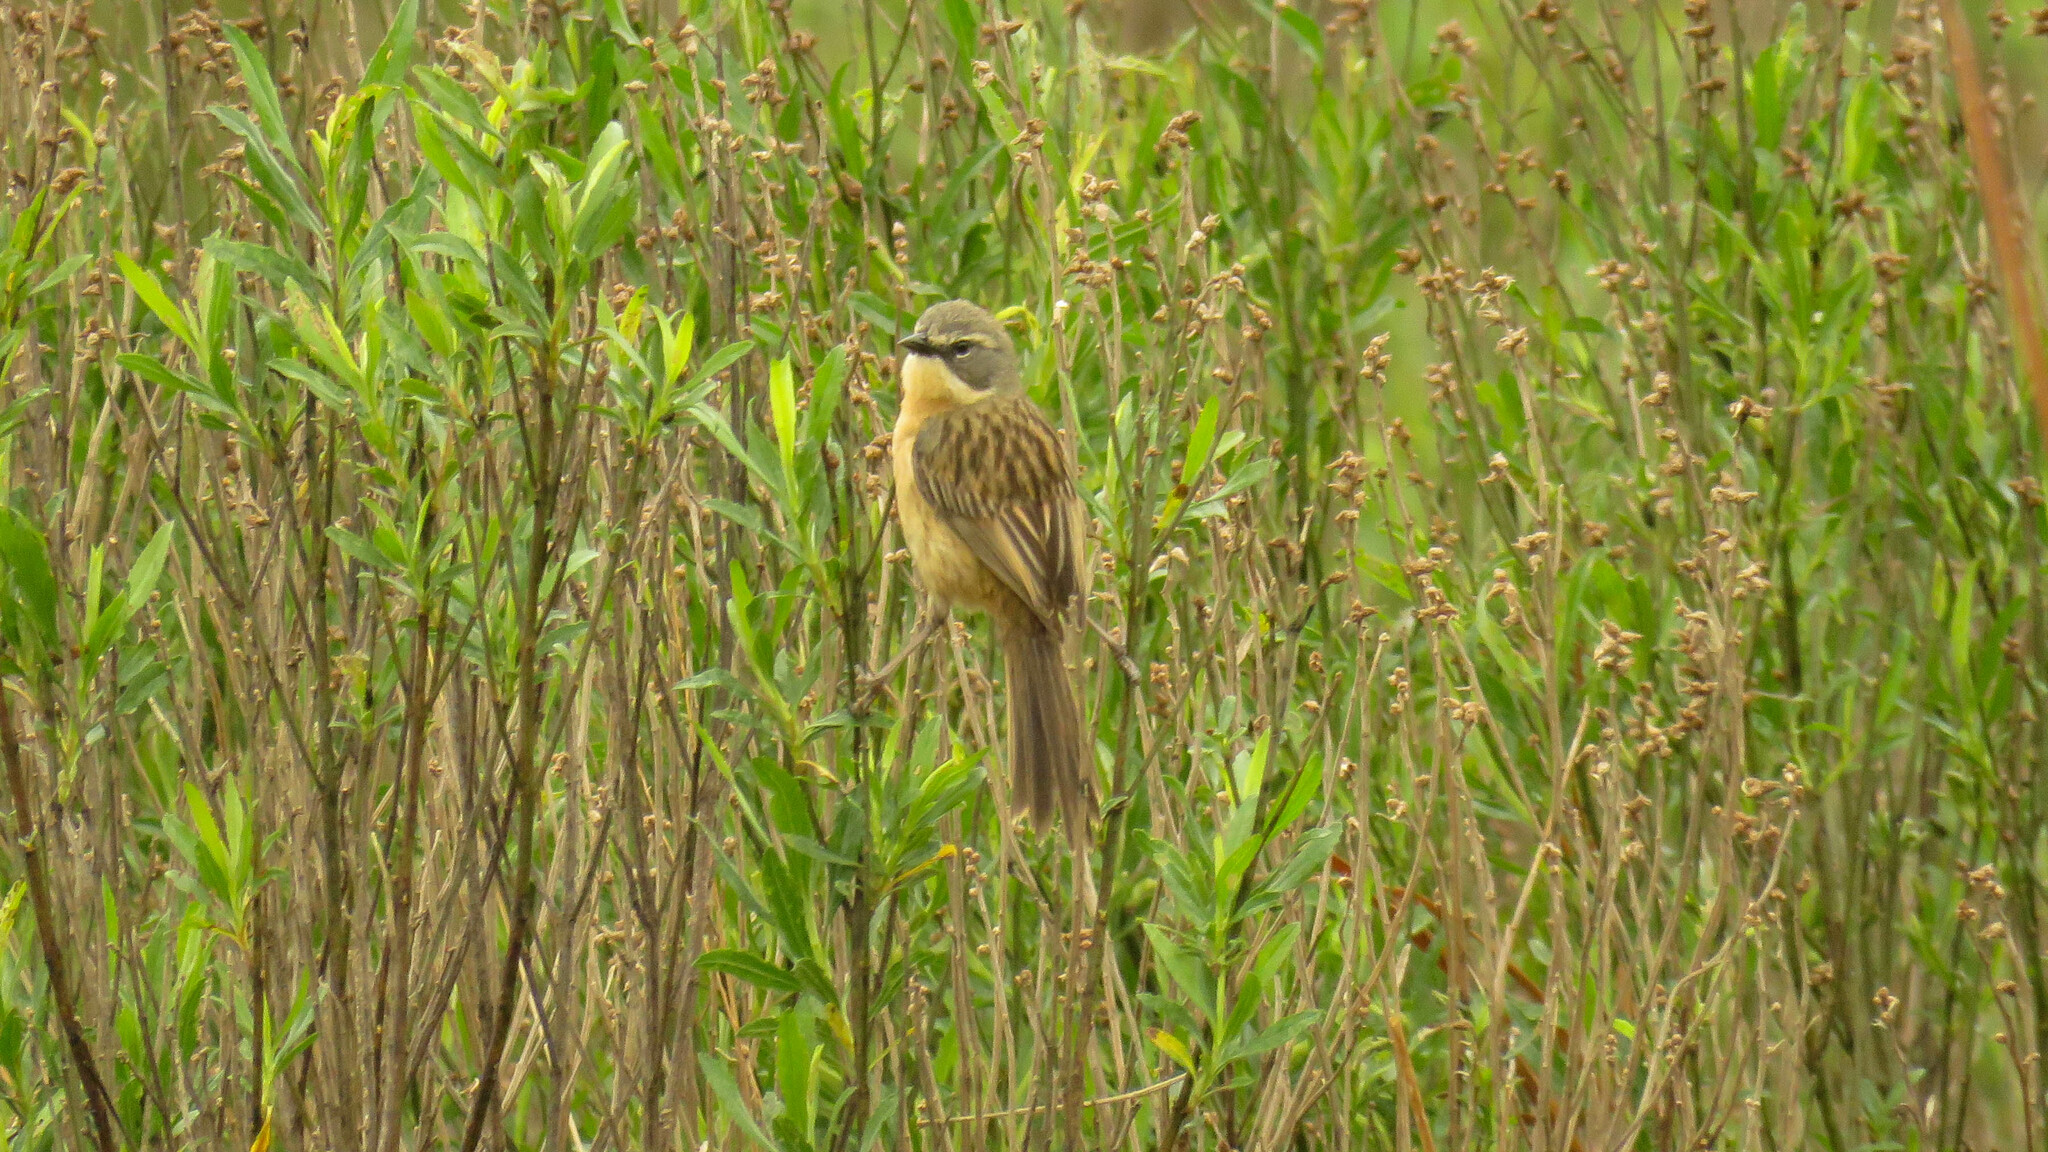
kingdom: Animalia
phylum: Chordata
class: Aves
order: Passeriformes
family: Thraupidae
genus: Donacospiza
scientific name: Donacospiza albifrons
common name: Long-tailed reed finch
